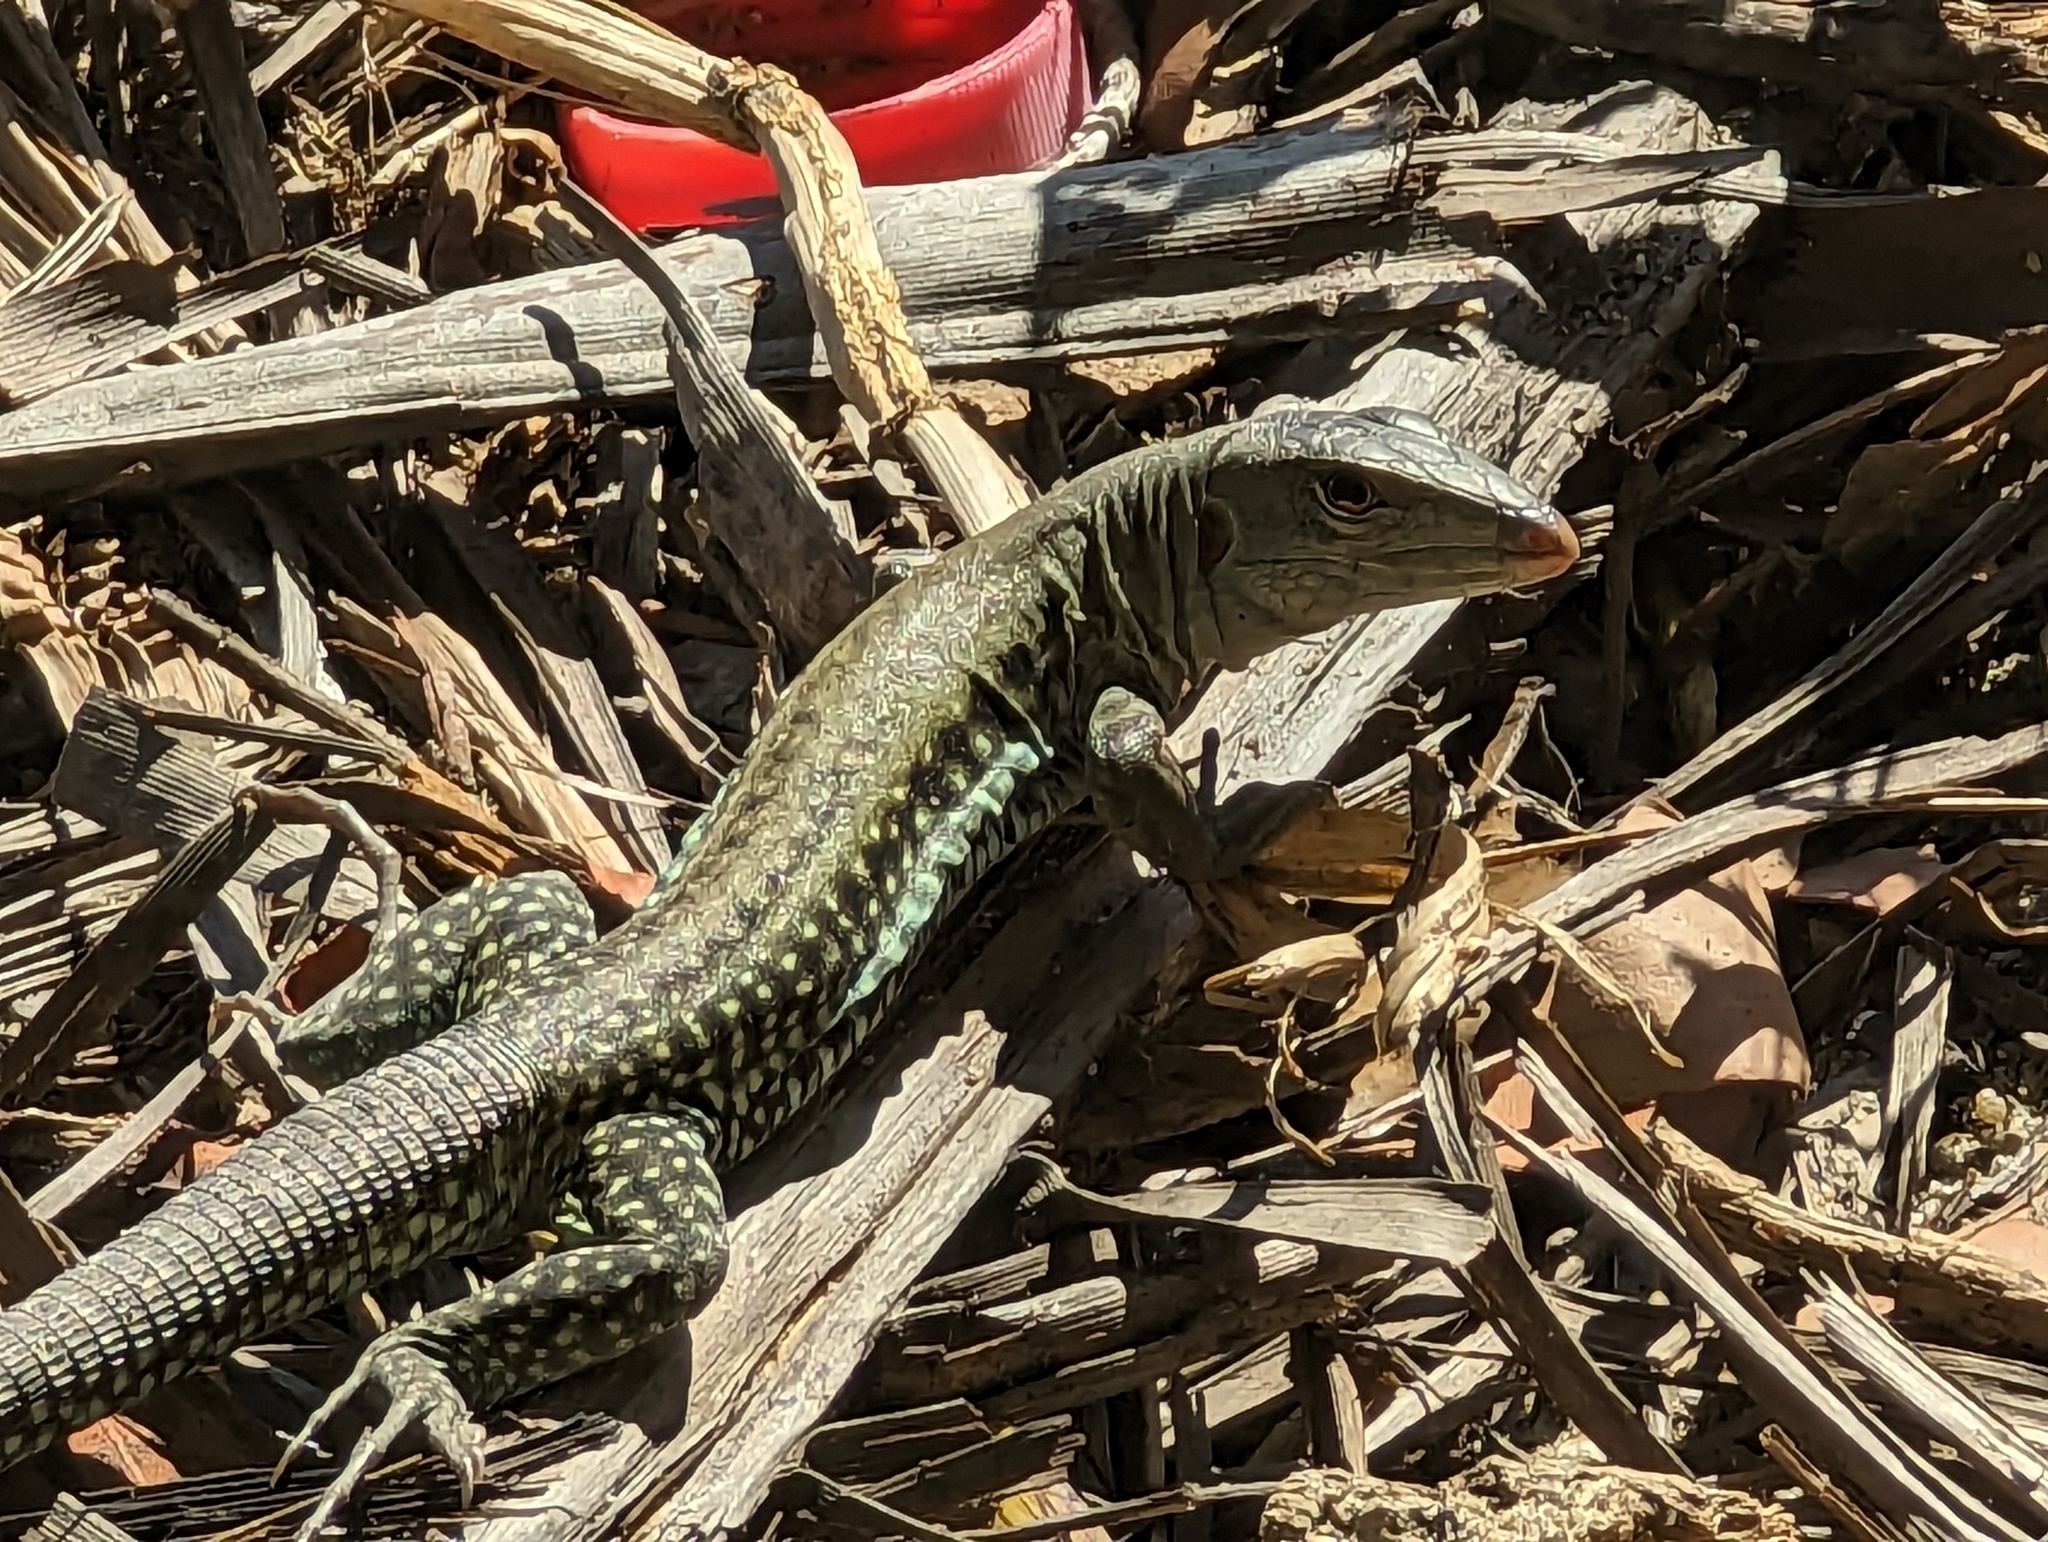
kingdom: Animalia
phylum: Chordata
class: Squamata
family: Teiidae
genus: Pholidoscelis
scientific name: Pholidoscelis exsul
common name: Common puerto rican ameiva
